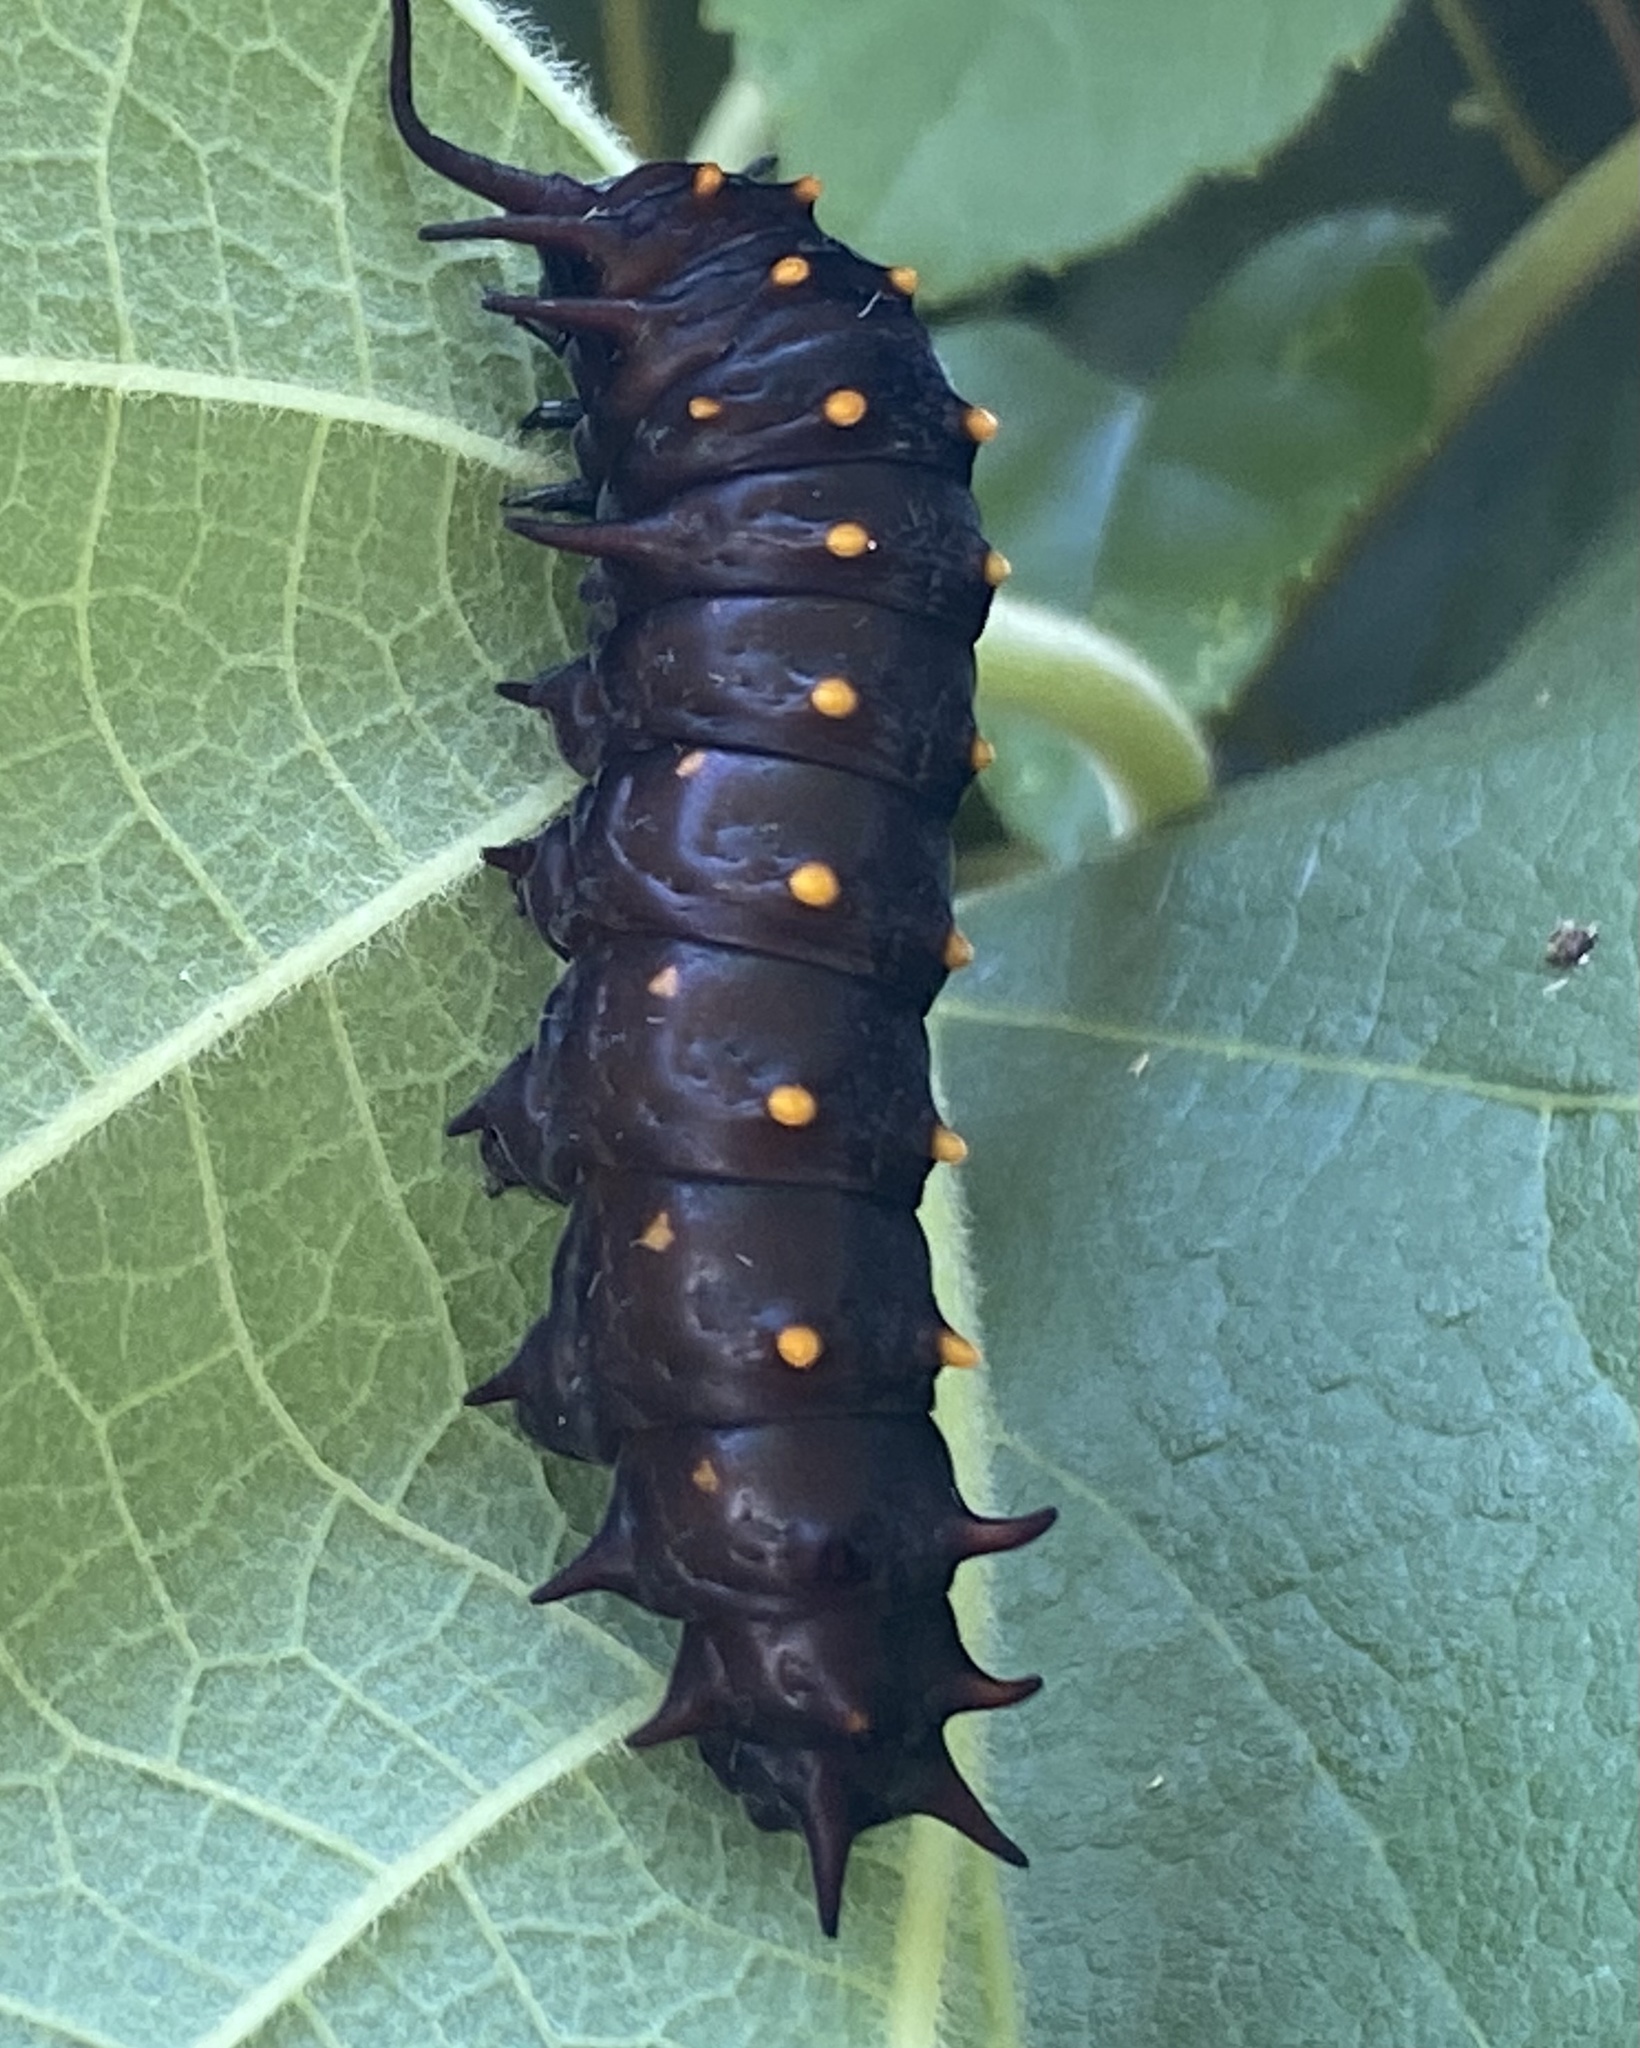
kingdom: Animalia
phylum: Arthropoda
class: Insecta
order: Lepidoptera
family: Papilionidae
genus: Battus
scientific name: Battus philenor
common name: Pipevine swallowtail
